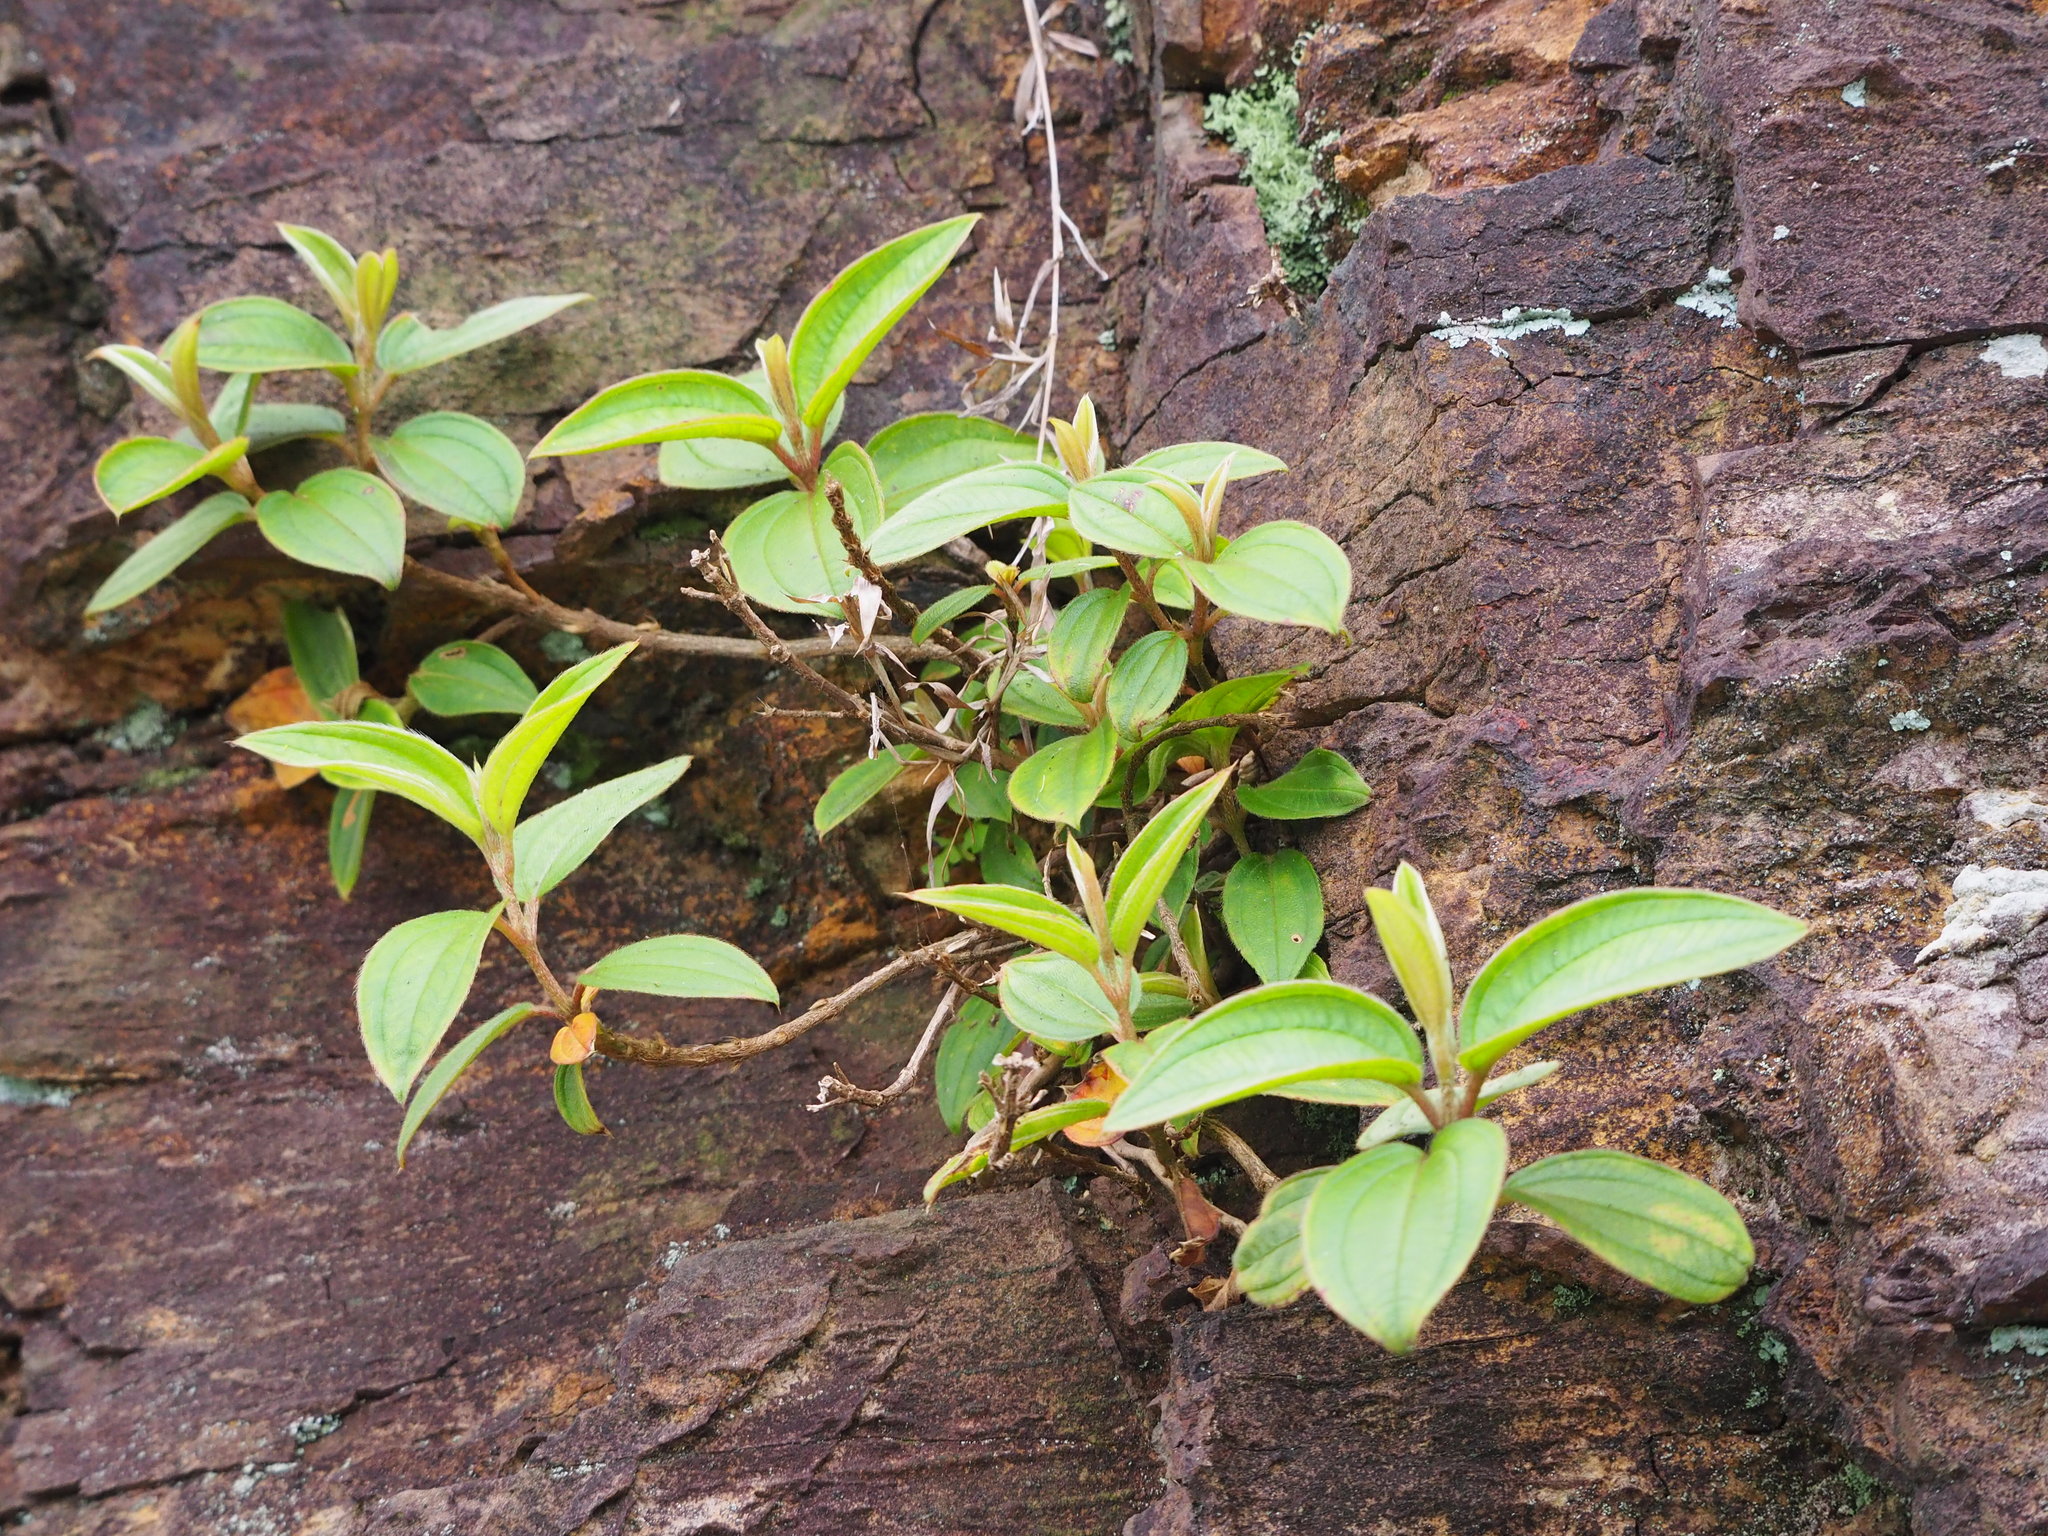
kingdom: Plantae
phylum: Tracheophyta
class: Magnoliopsida
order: Myrtales
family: Melastomataceae
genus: Melastoma
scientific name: Melastoma malabathricum
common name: Indian-rhododendron
